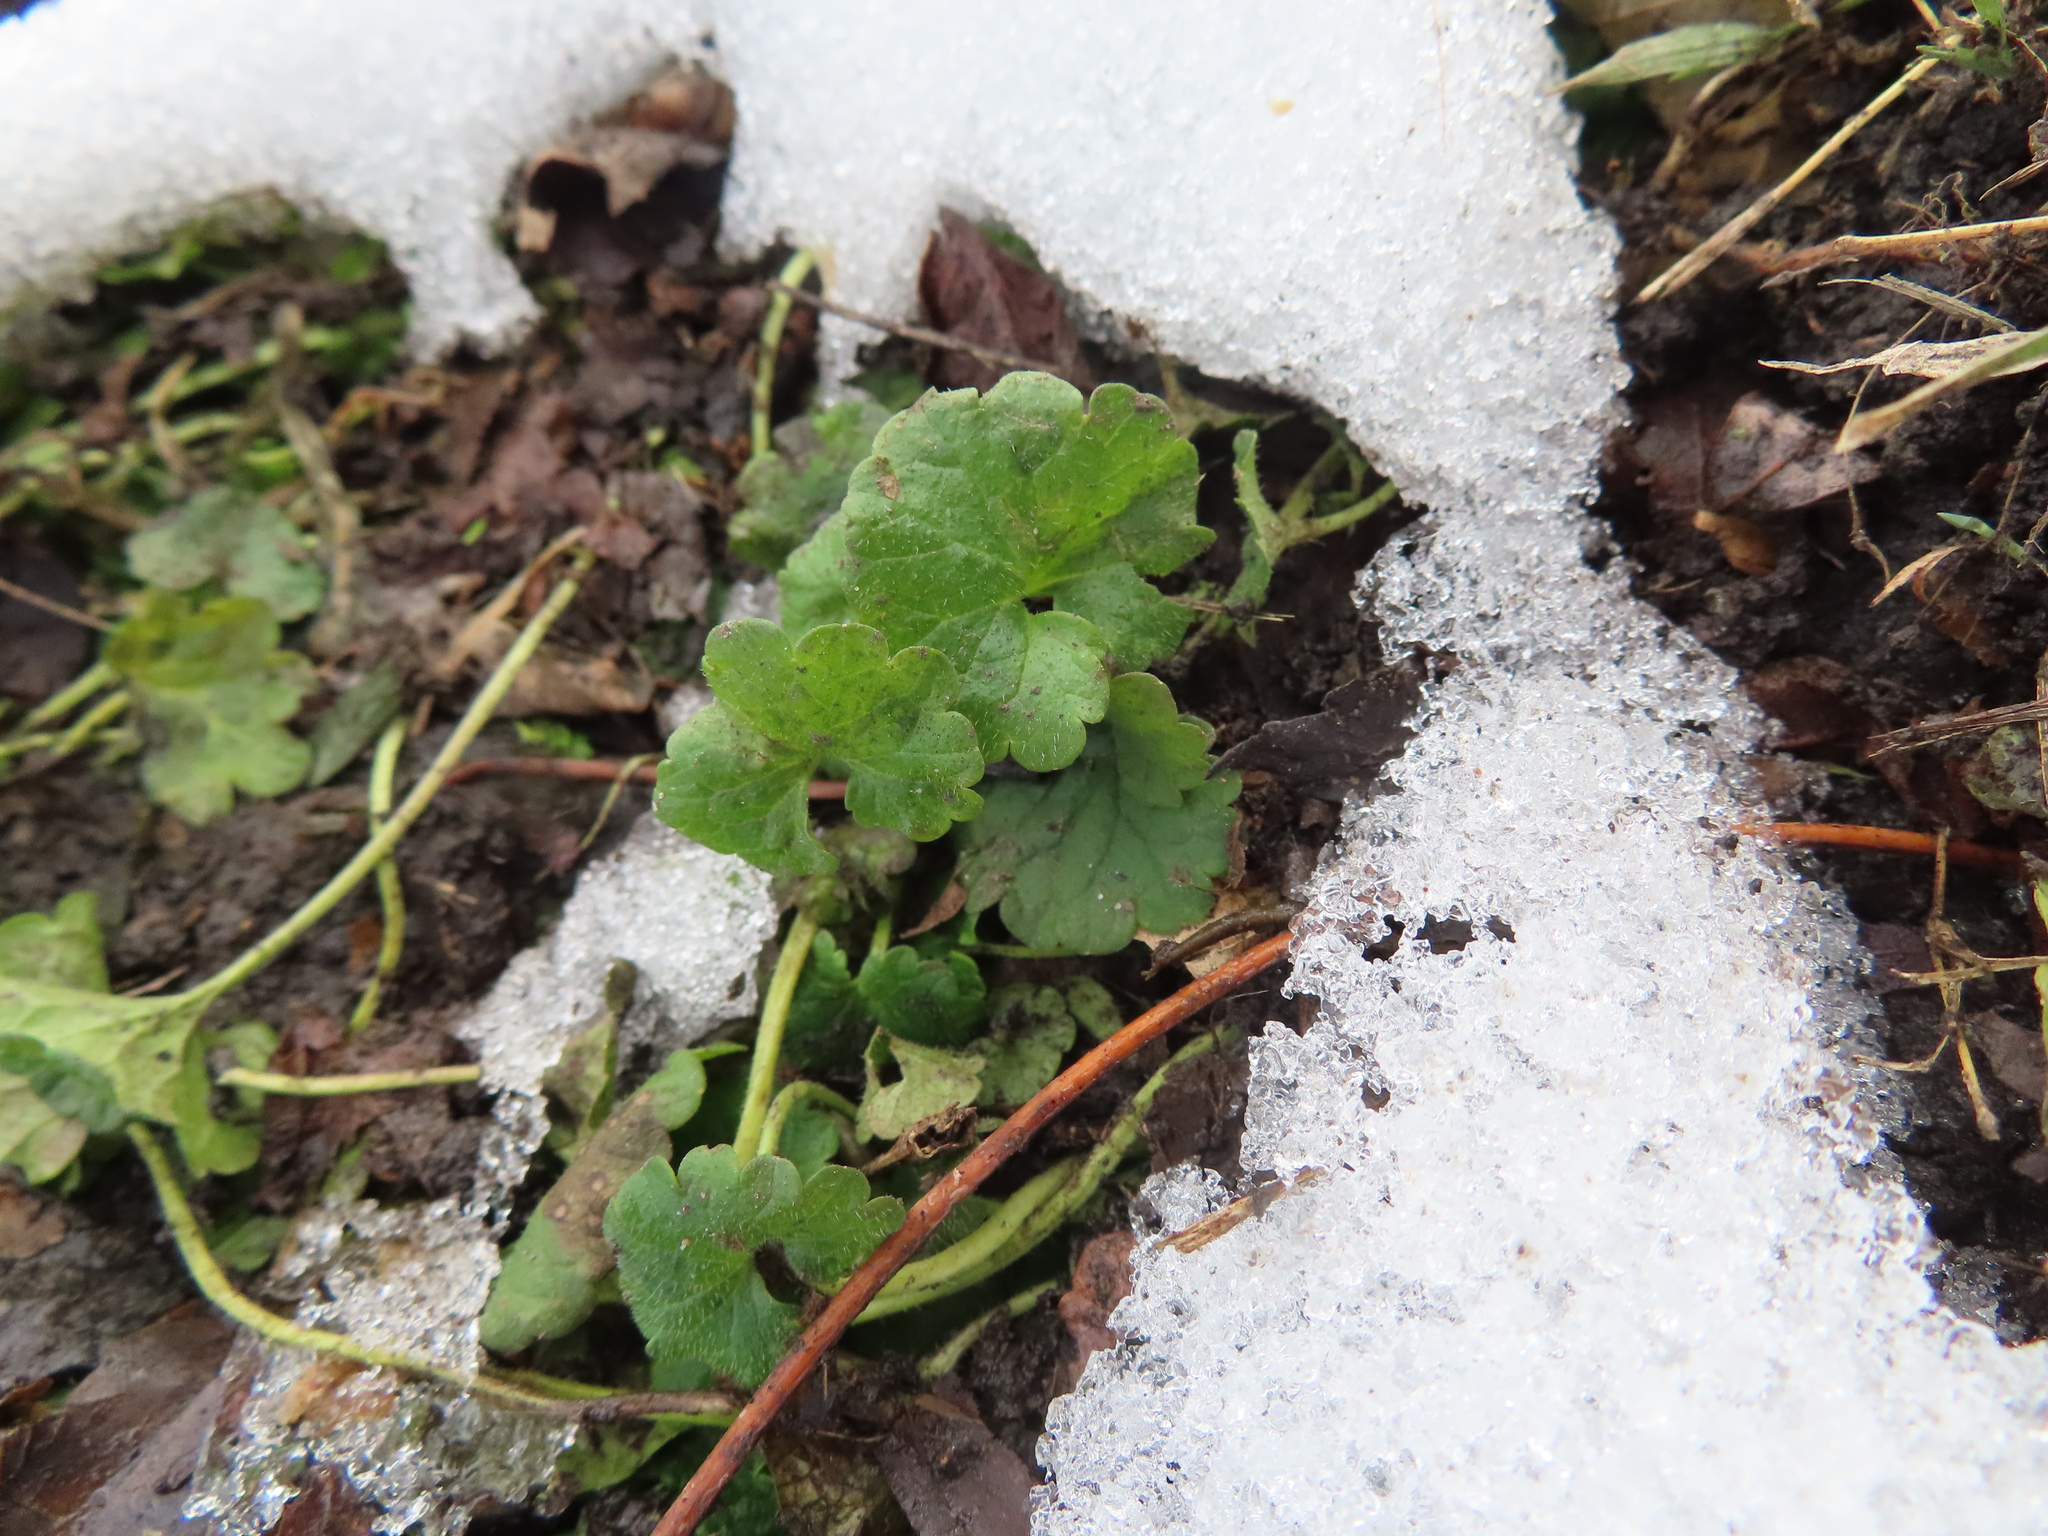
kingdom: Plantae
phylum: Tracheophyta
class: Magnoliopsida
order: Lamiales
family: Lamiaceae
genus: Glechoma
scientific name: Glechoma hederacea
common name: Ground ivy
